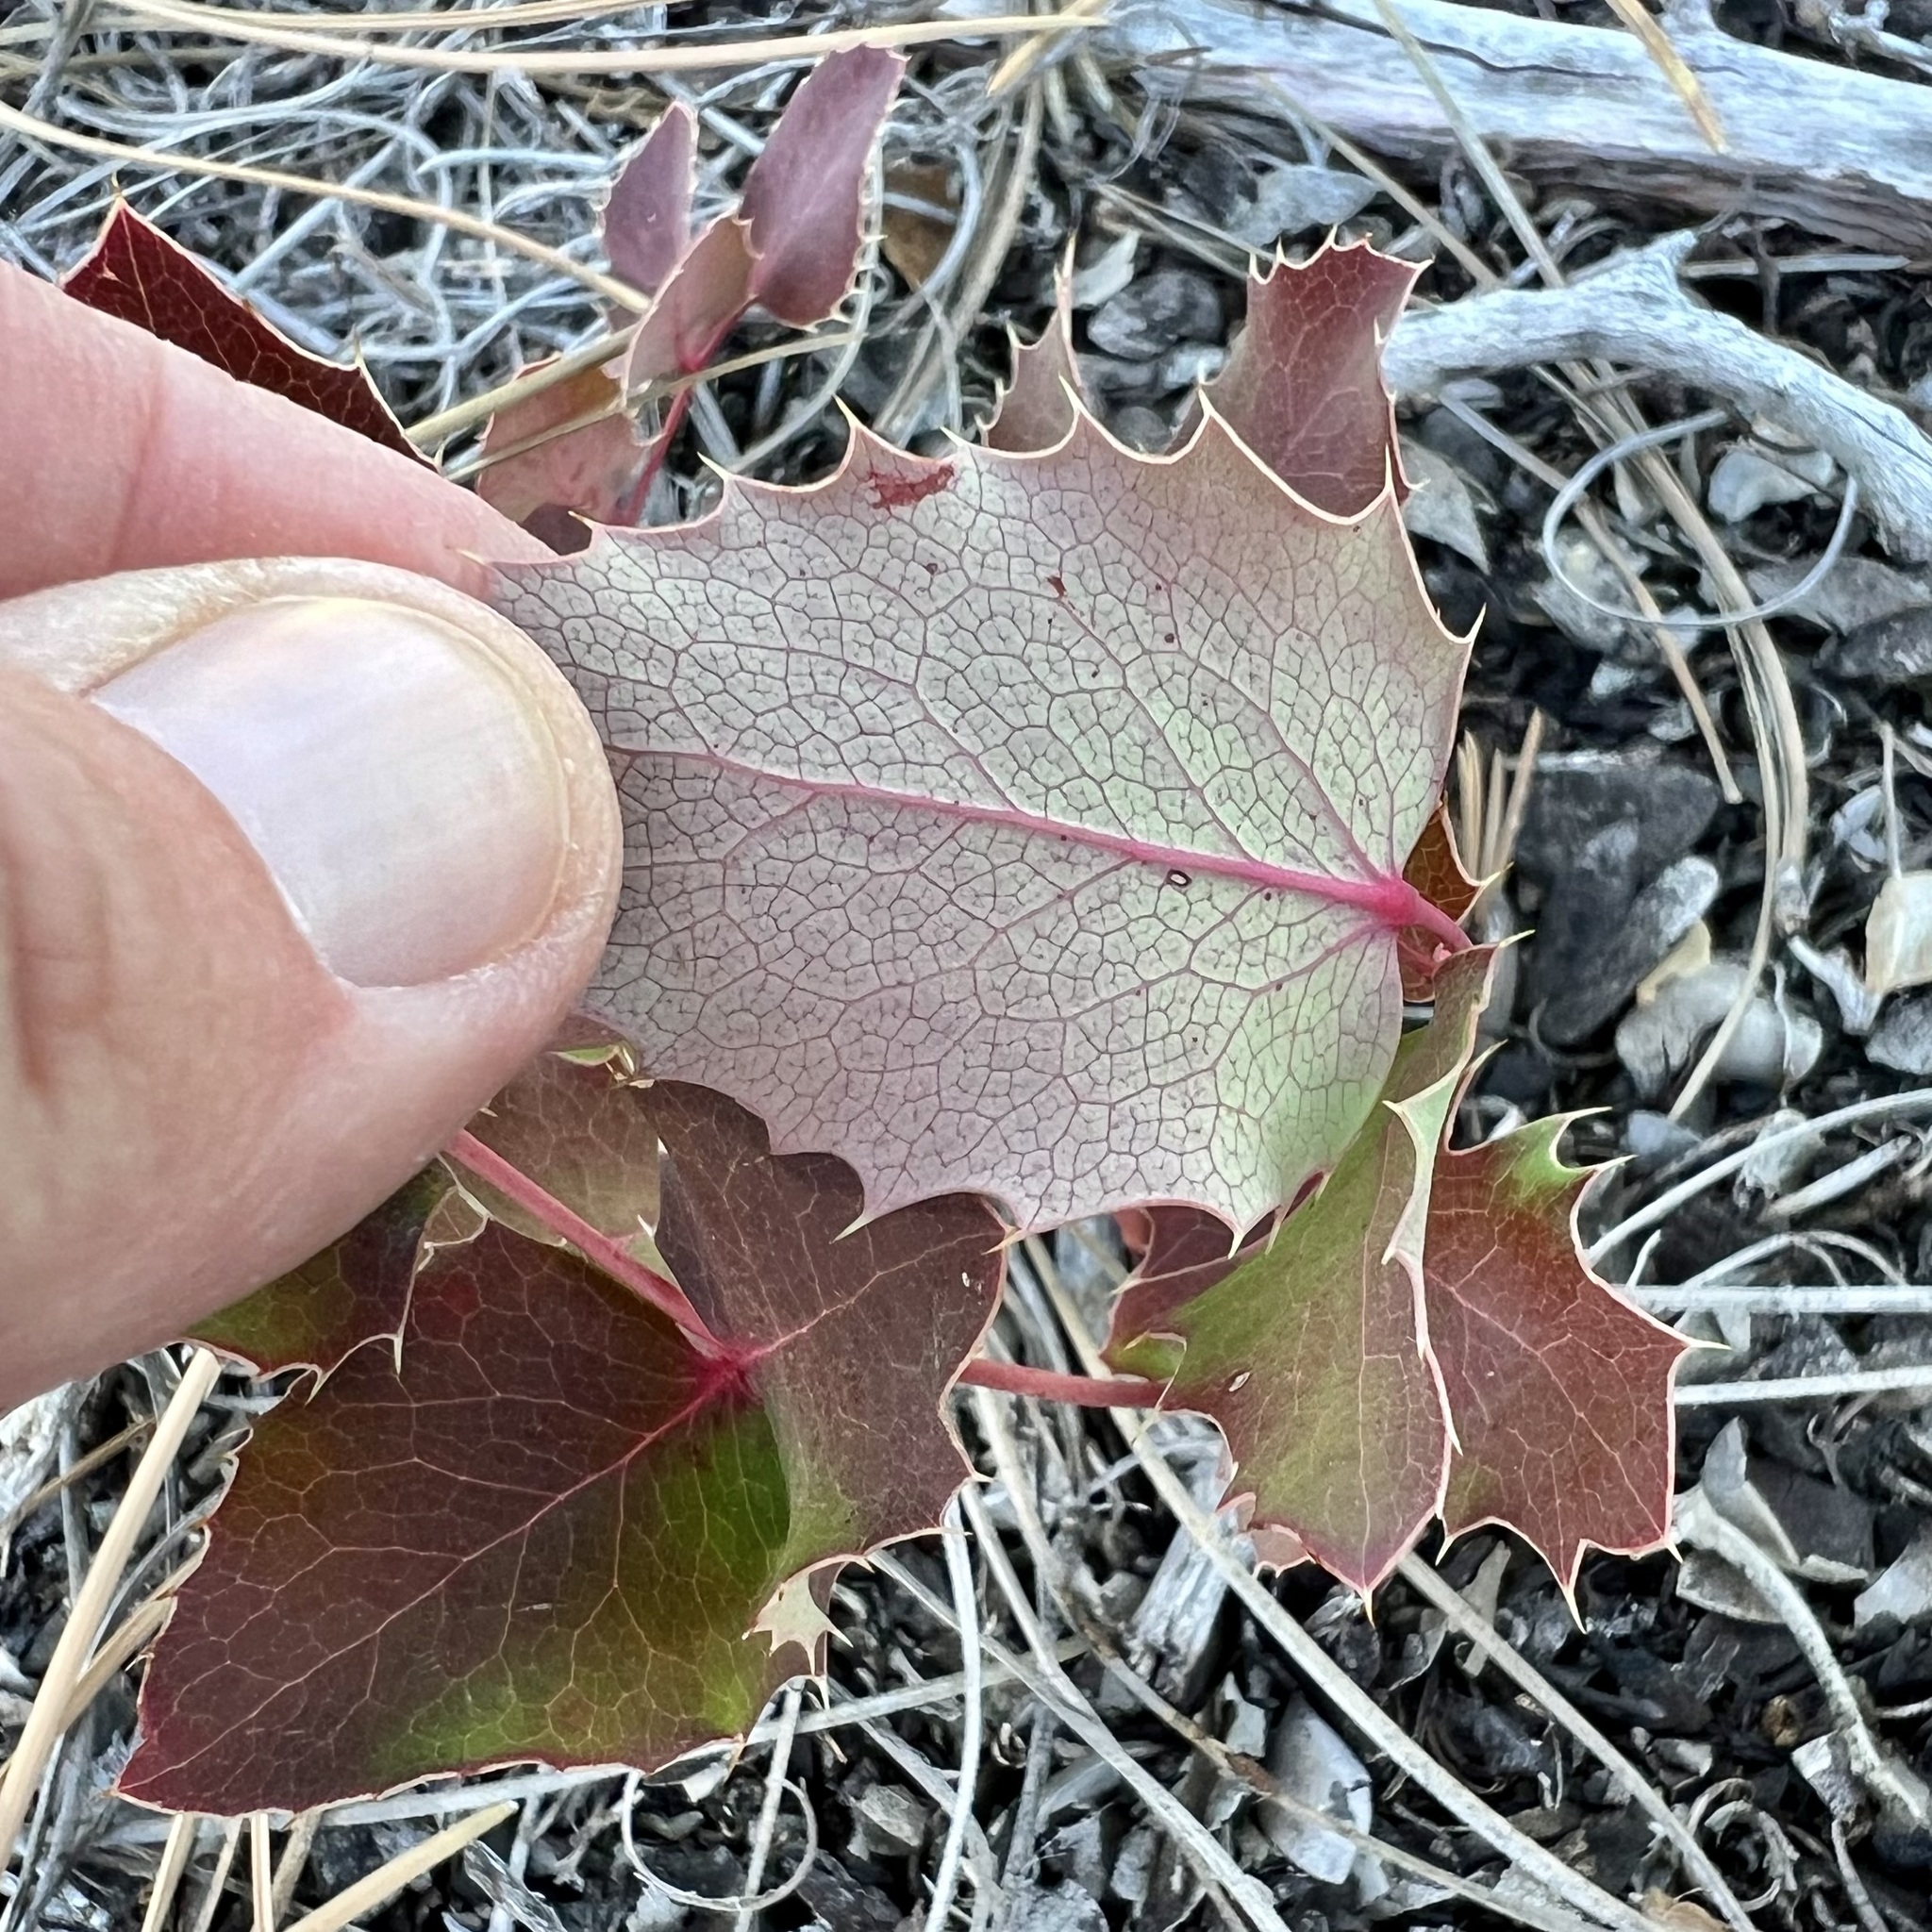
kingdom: Plantae
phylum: Tracheophyta
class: Magnoliopsida
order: Ranunculales
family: Berberidaceae
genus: Mahonia
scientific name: Mahonia repens
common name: Creeping oregon-grape
